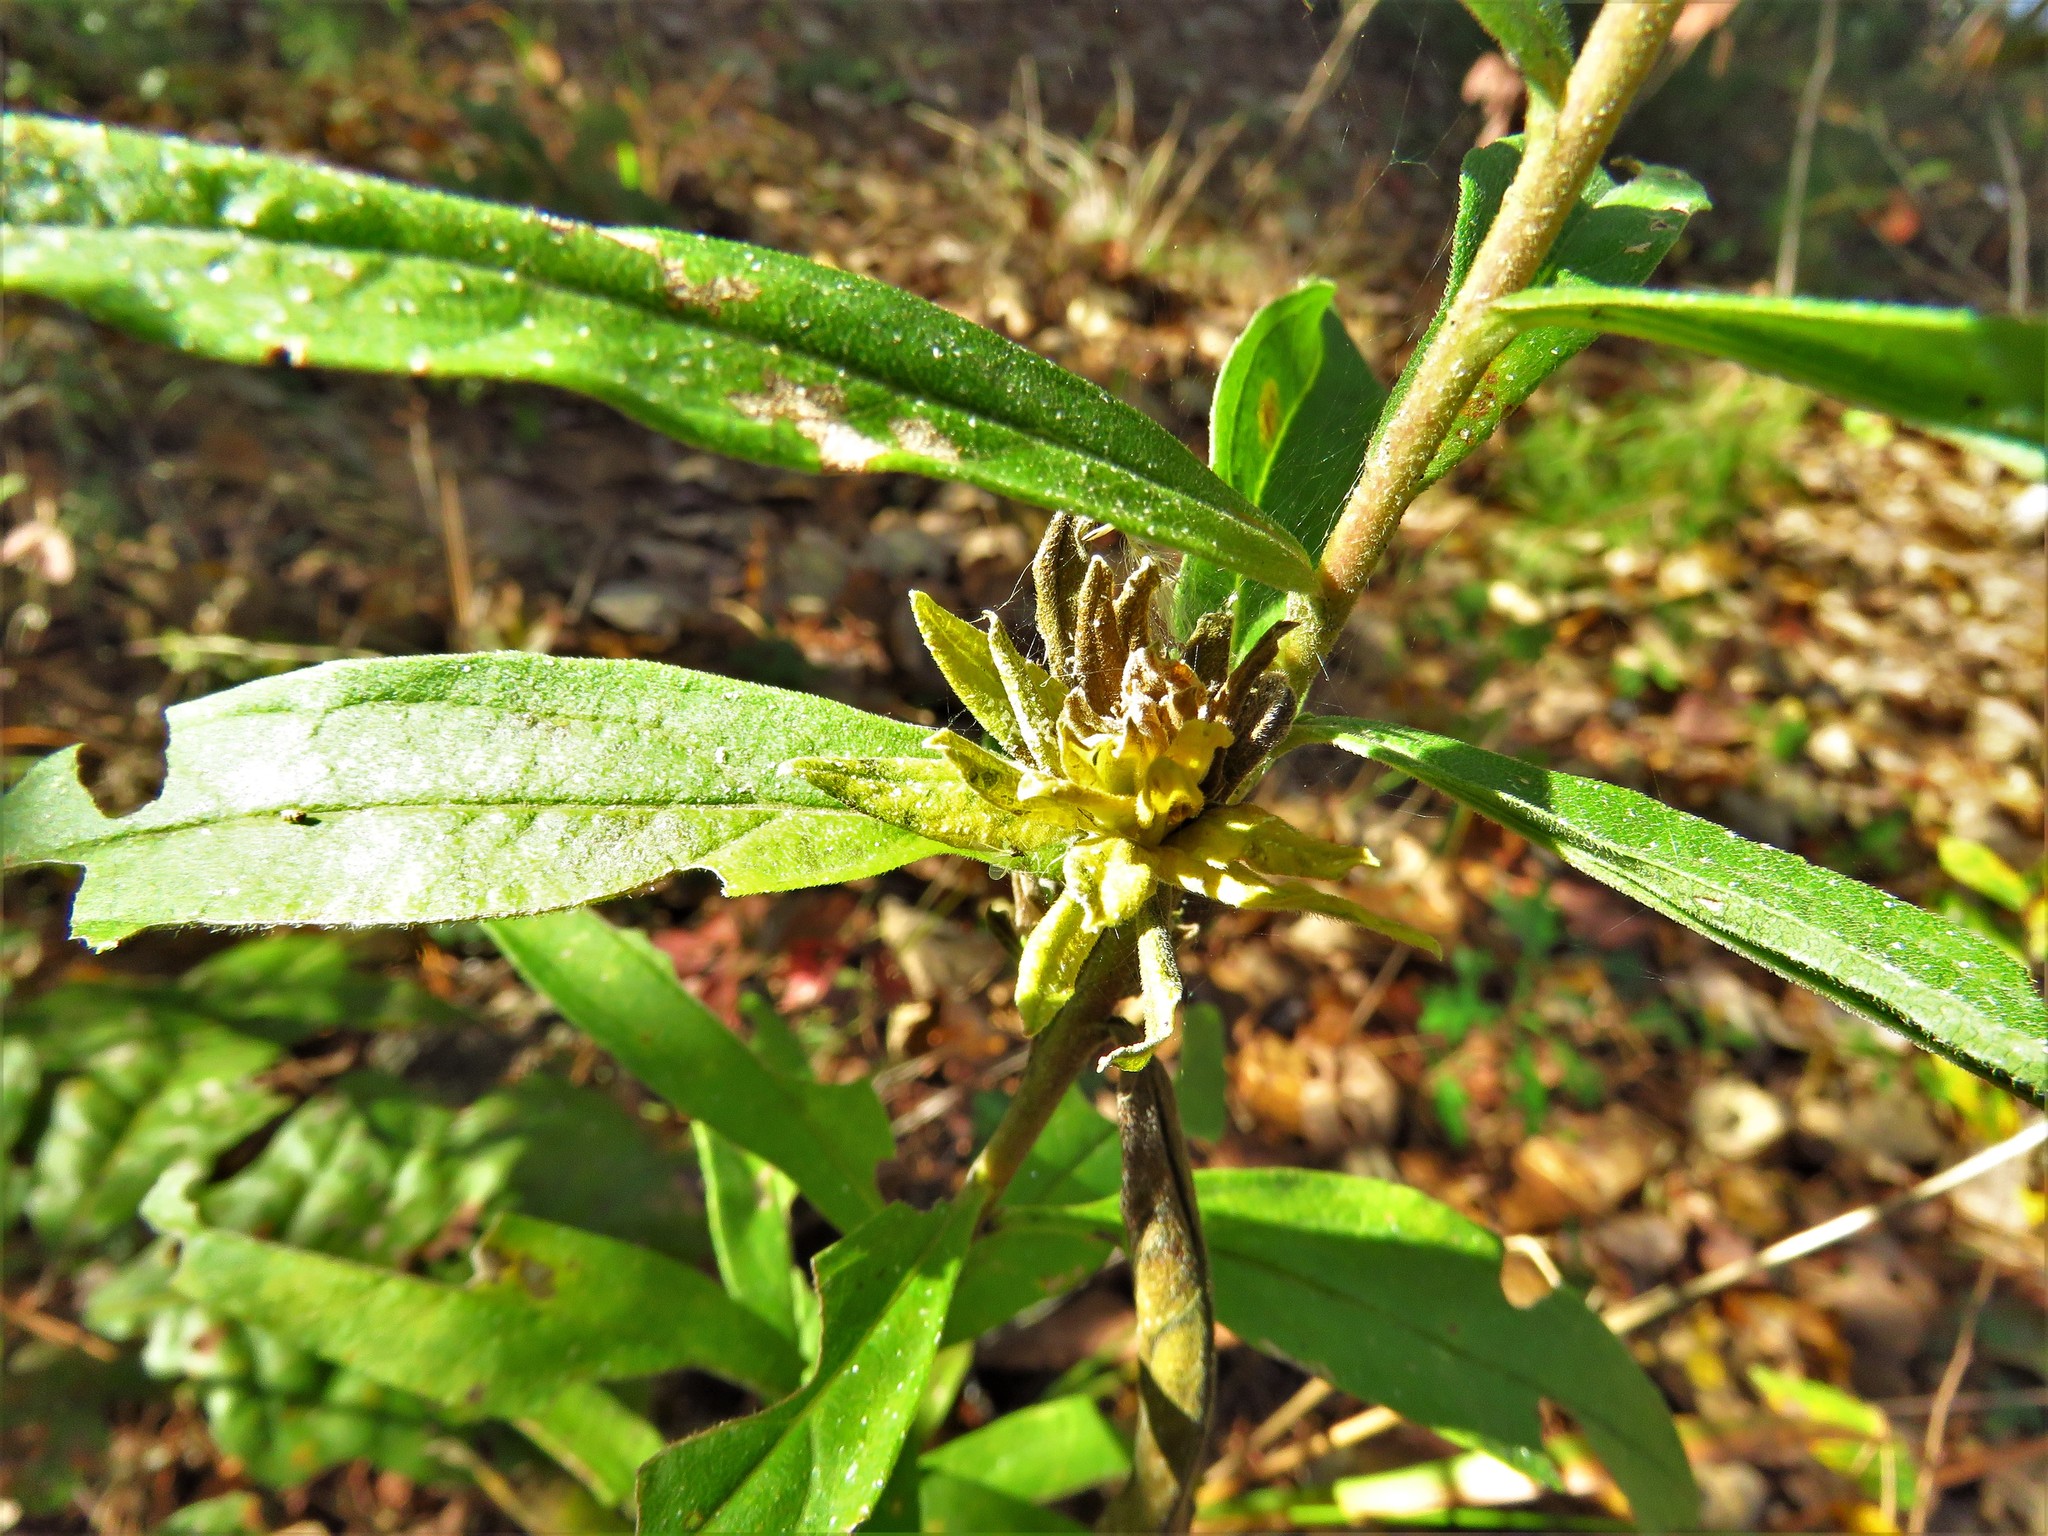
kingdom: Animalia
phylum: Arthropoda
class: Insecta
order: Diptera
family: Tephritidae
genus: Procecidochares
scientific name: Procecidochares atra
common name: Goldenrod brussels sprout gall fly
